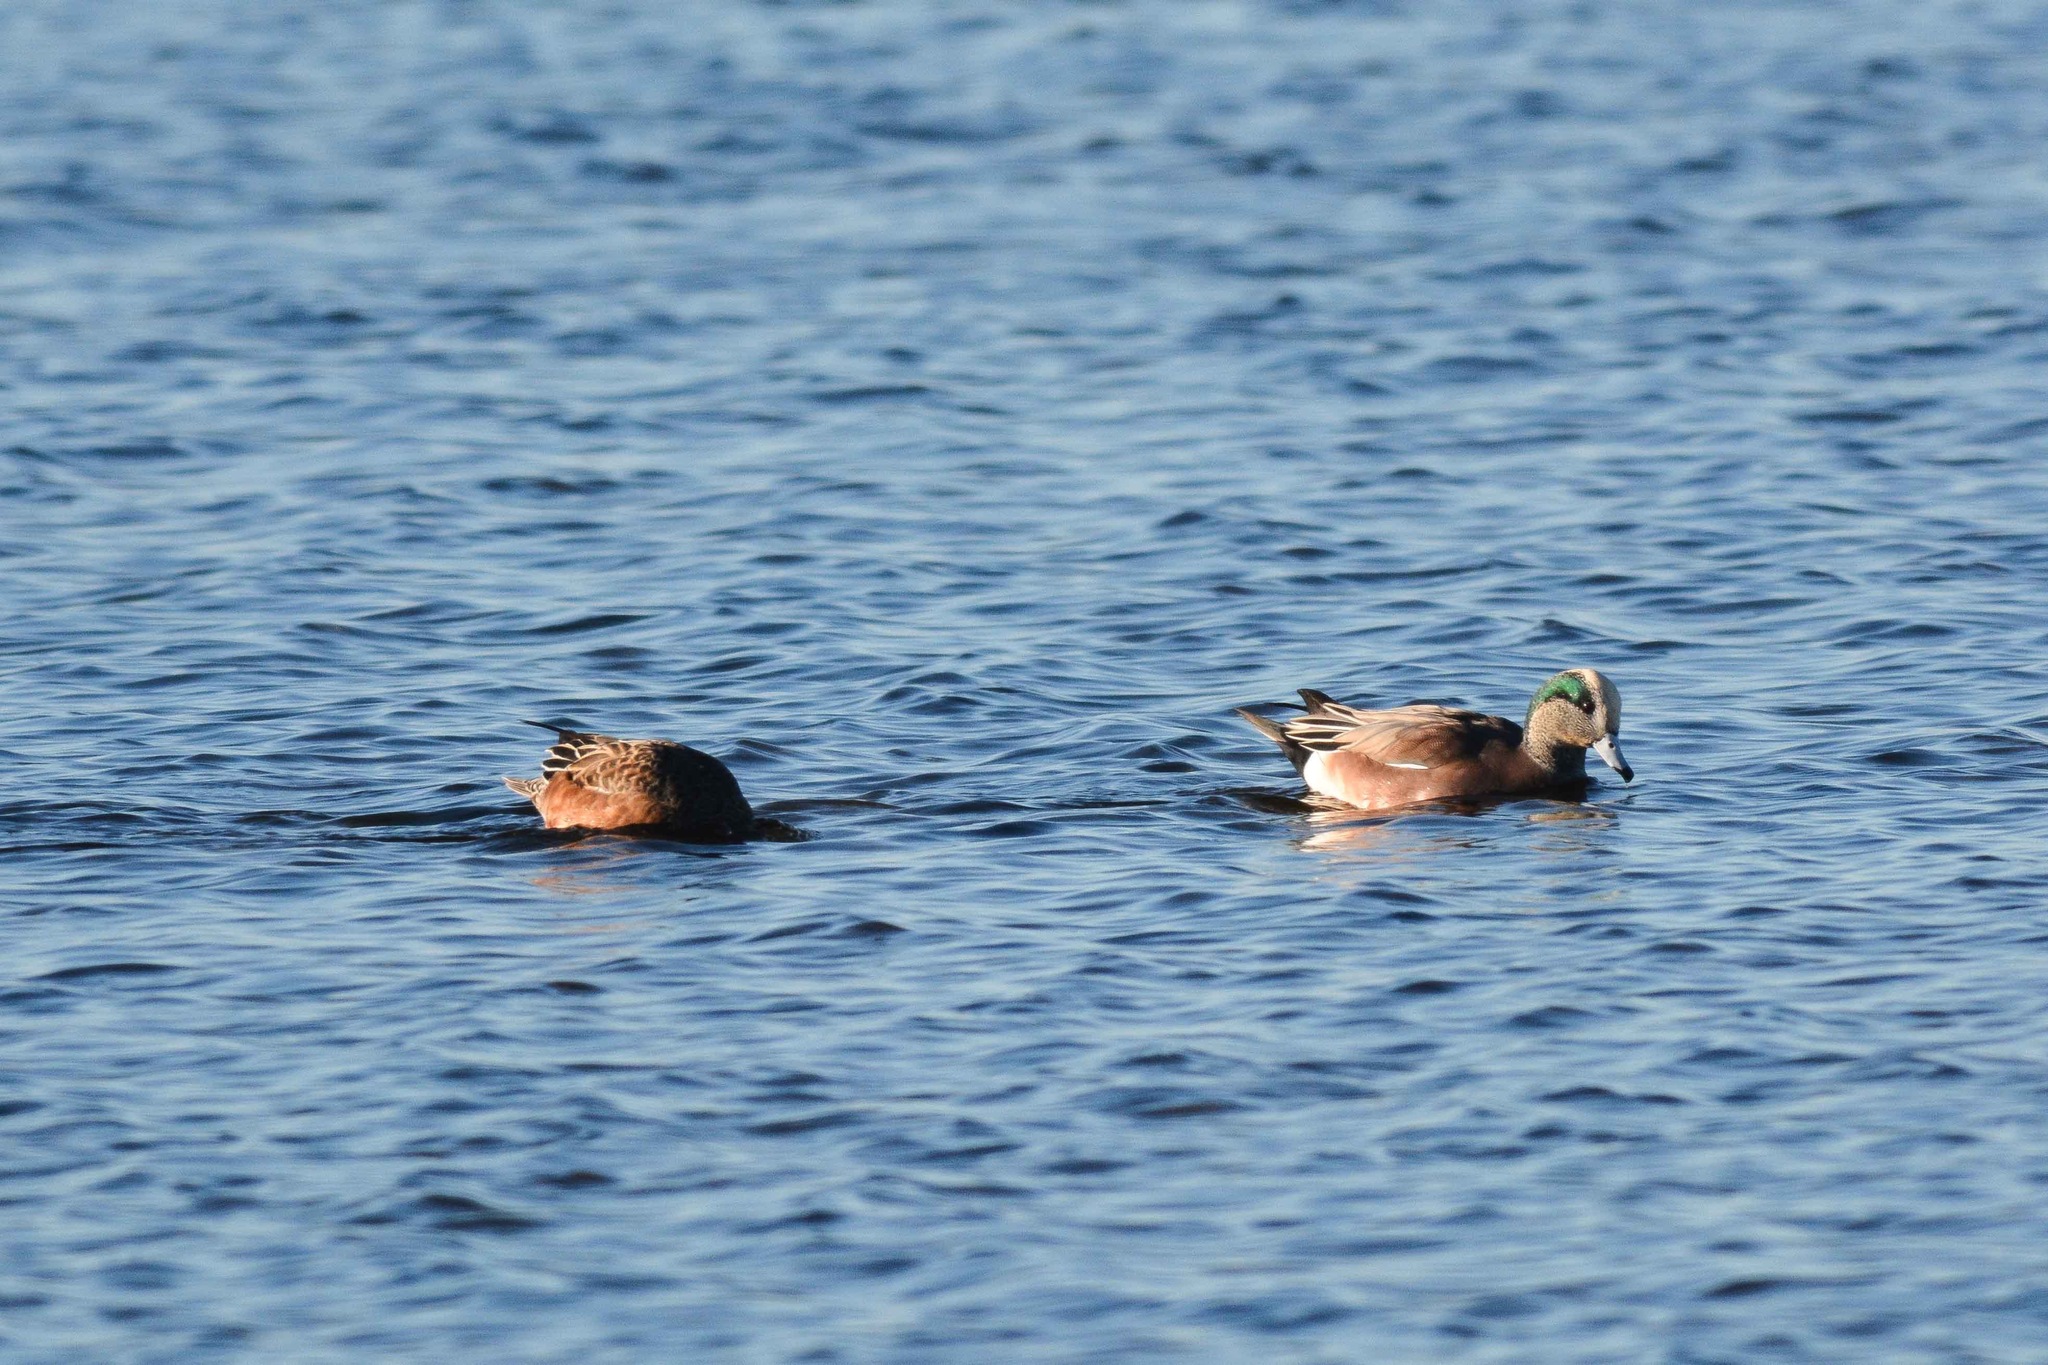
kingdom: Animalia
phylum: Chordata
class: Aves
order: Anseriformes
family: Anatidae
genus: Mareca
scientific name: Mareca americana
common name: American wigeon
